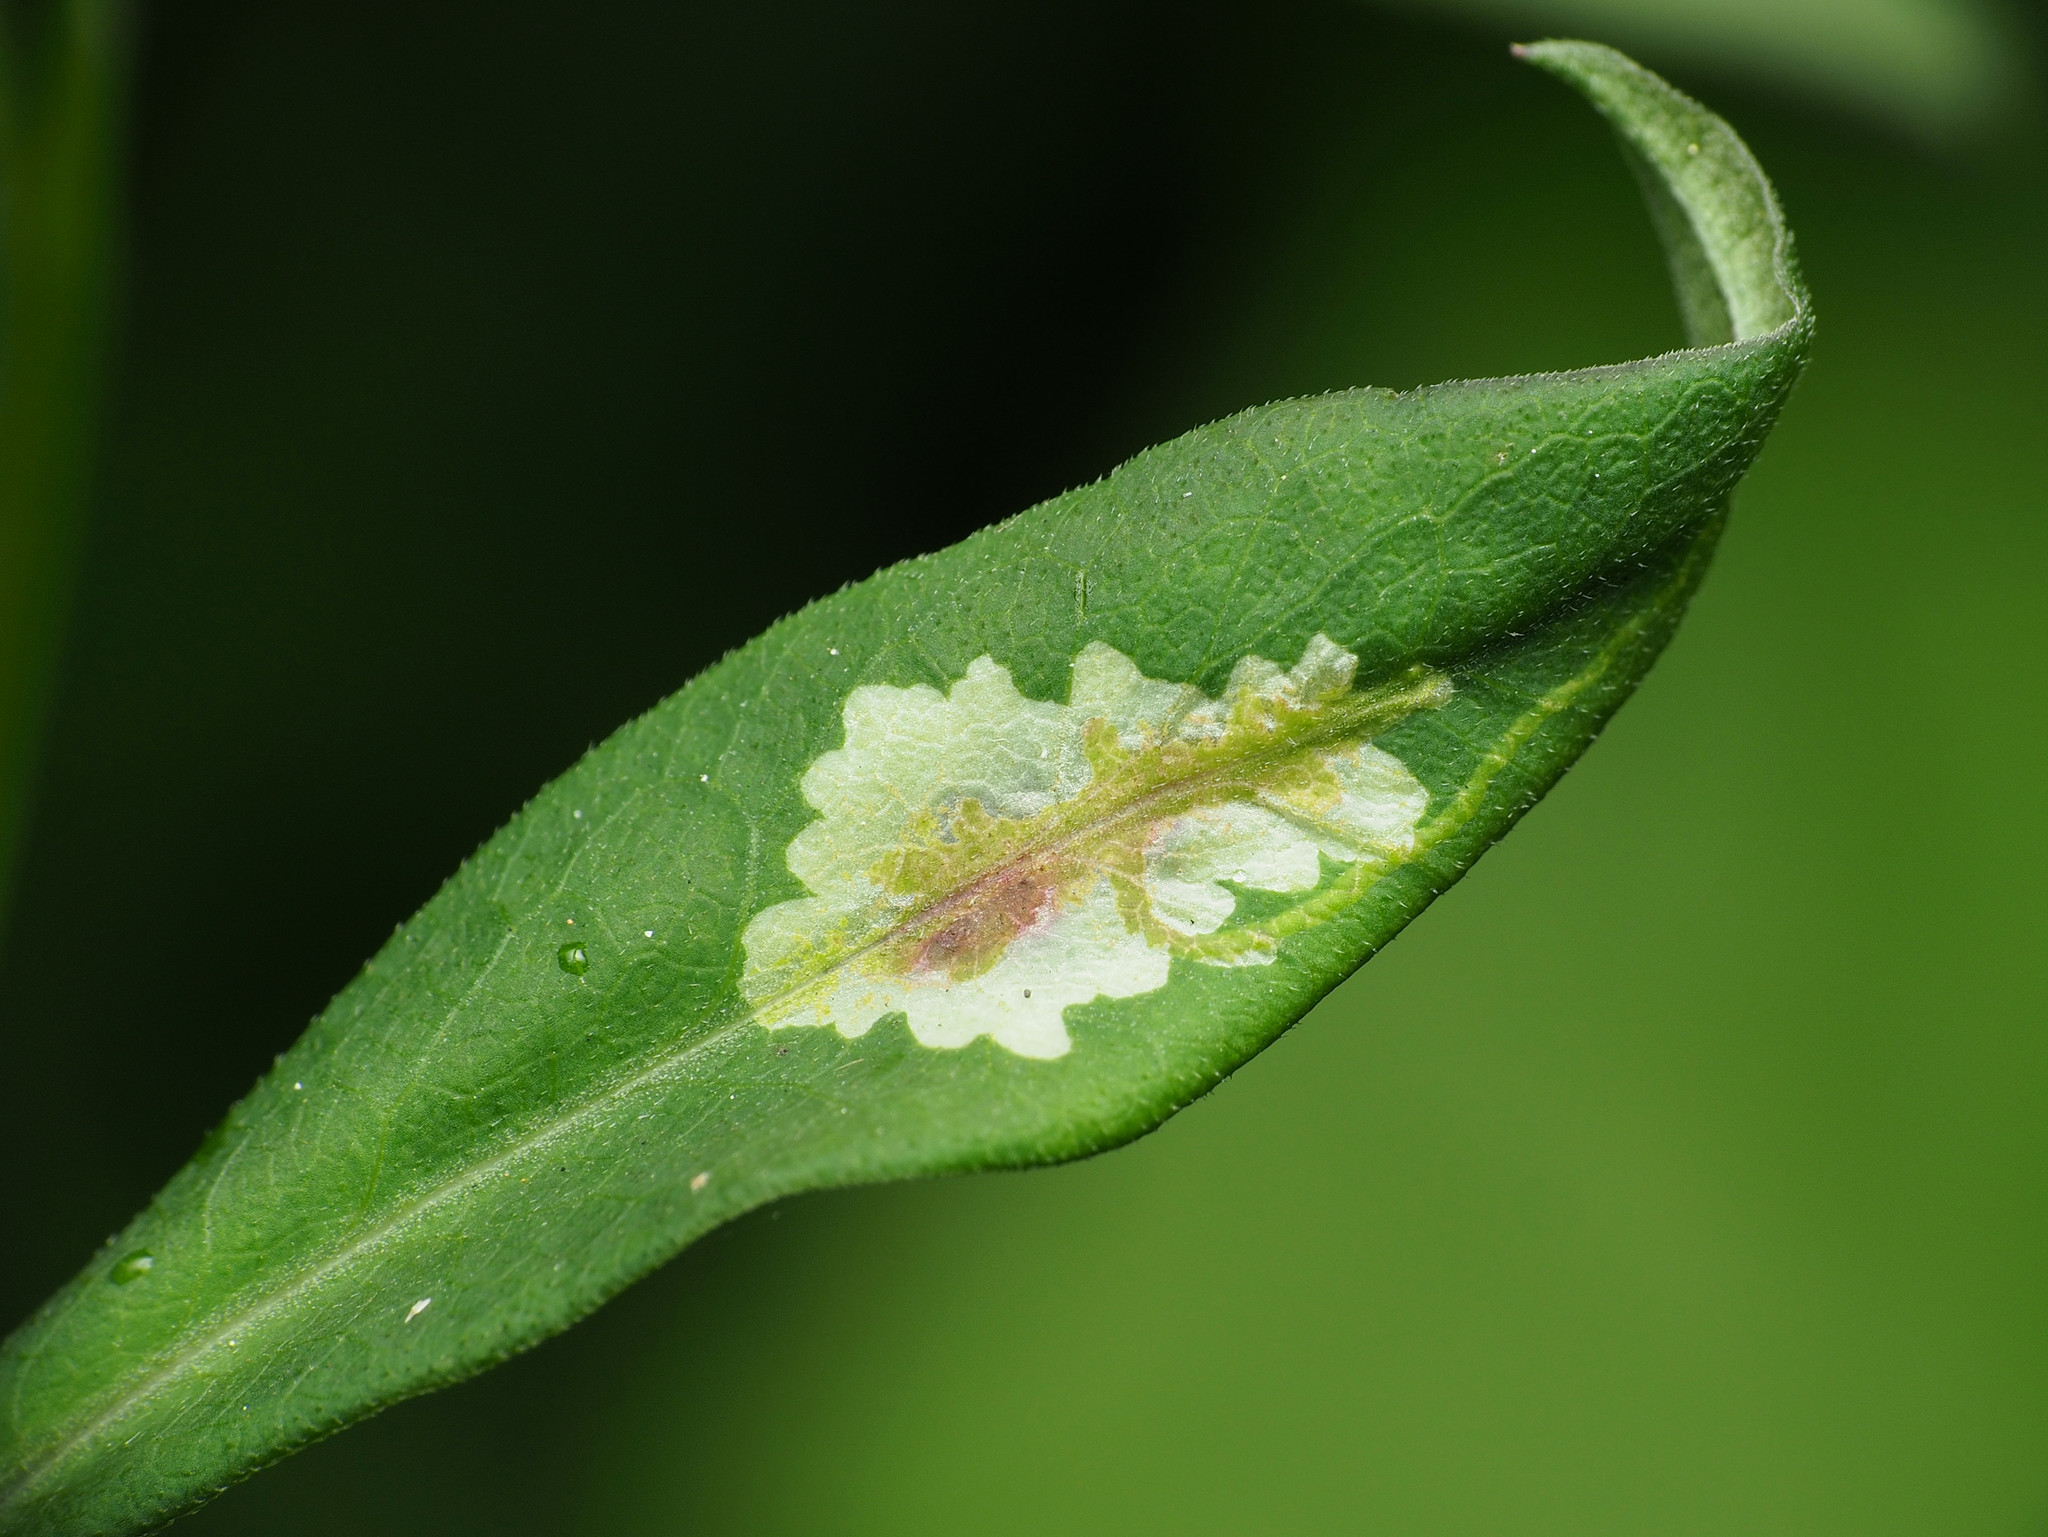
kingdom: Animalia
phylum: Arthropoda
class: Insecta
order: Diptera
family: Agromyzidae
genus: Calycomyza
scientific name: Calycomyza promissa
